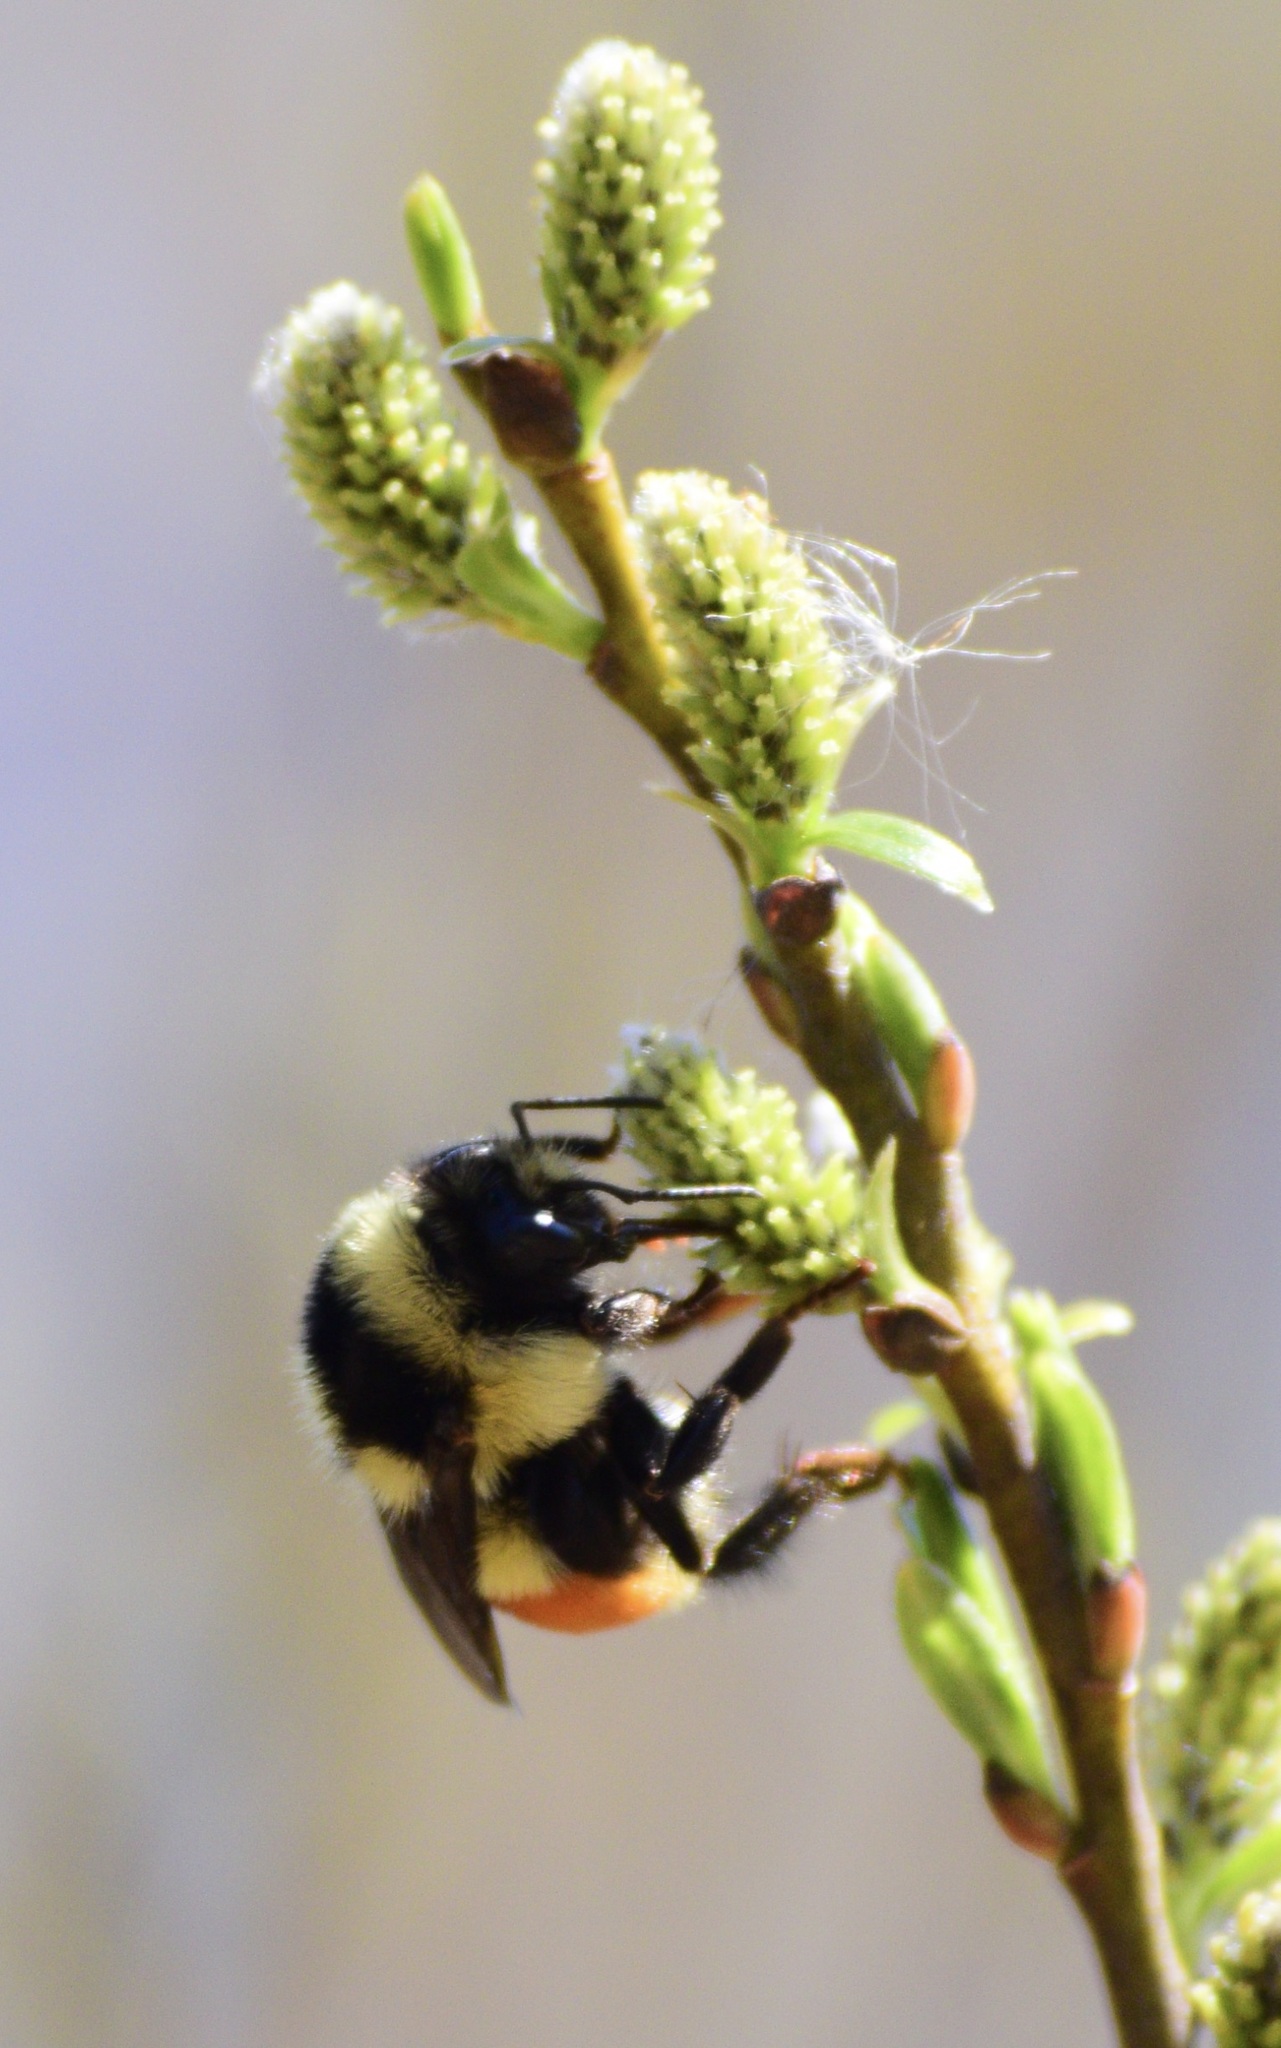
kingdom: Animalia
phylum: Arthropoda
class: Insecta
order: Hymenoptera
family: Apidae
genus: Bombus
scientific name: Bombus ternarius
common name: Tri-colored bumble bee
